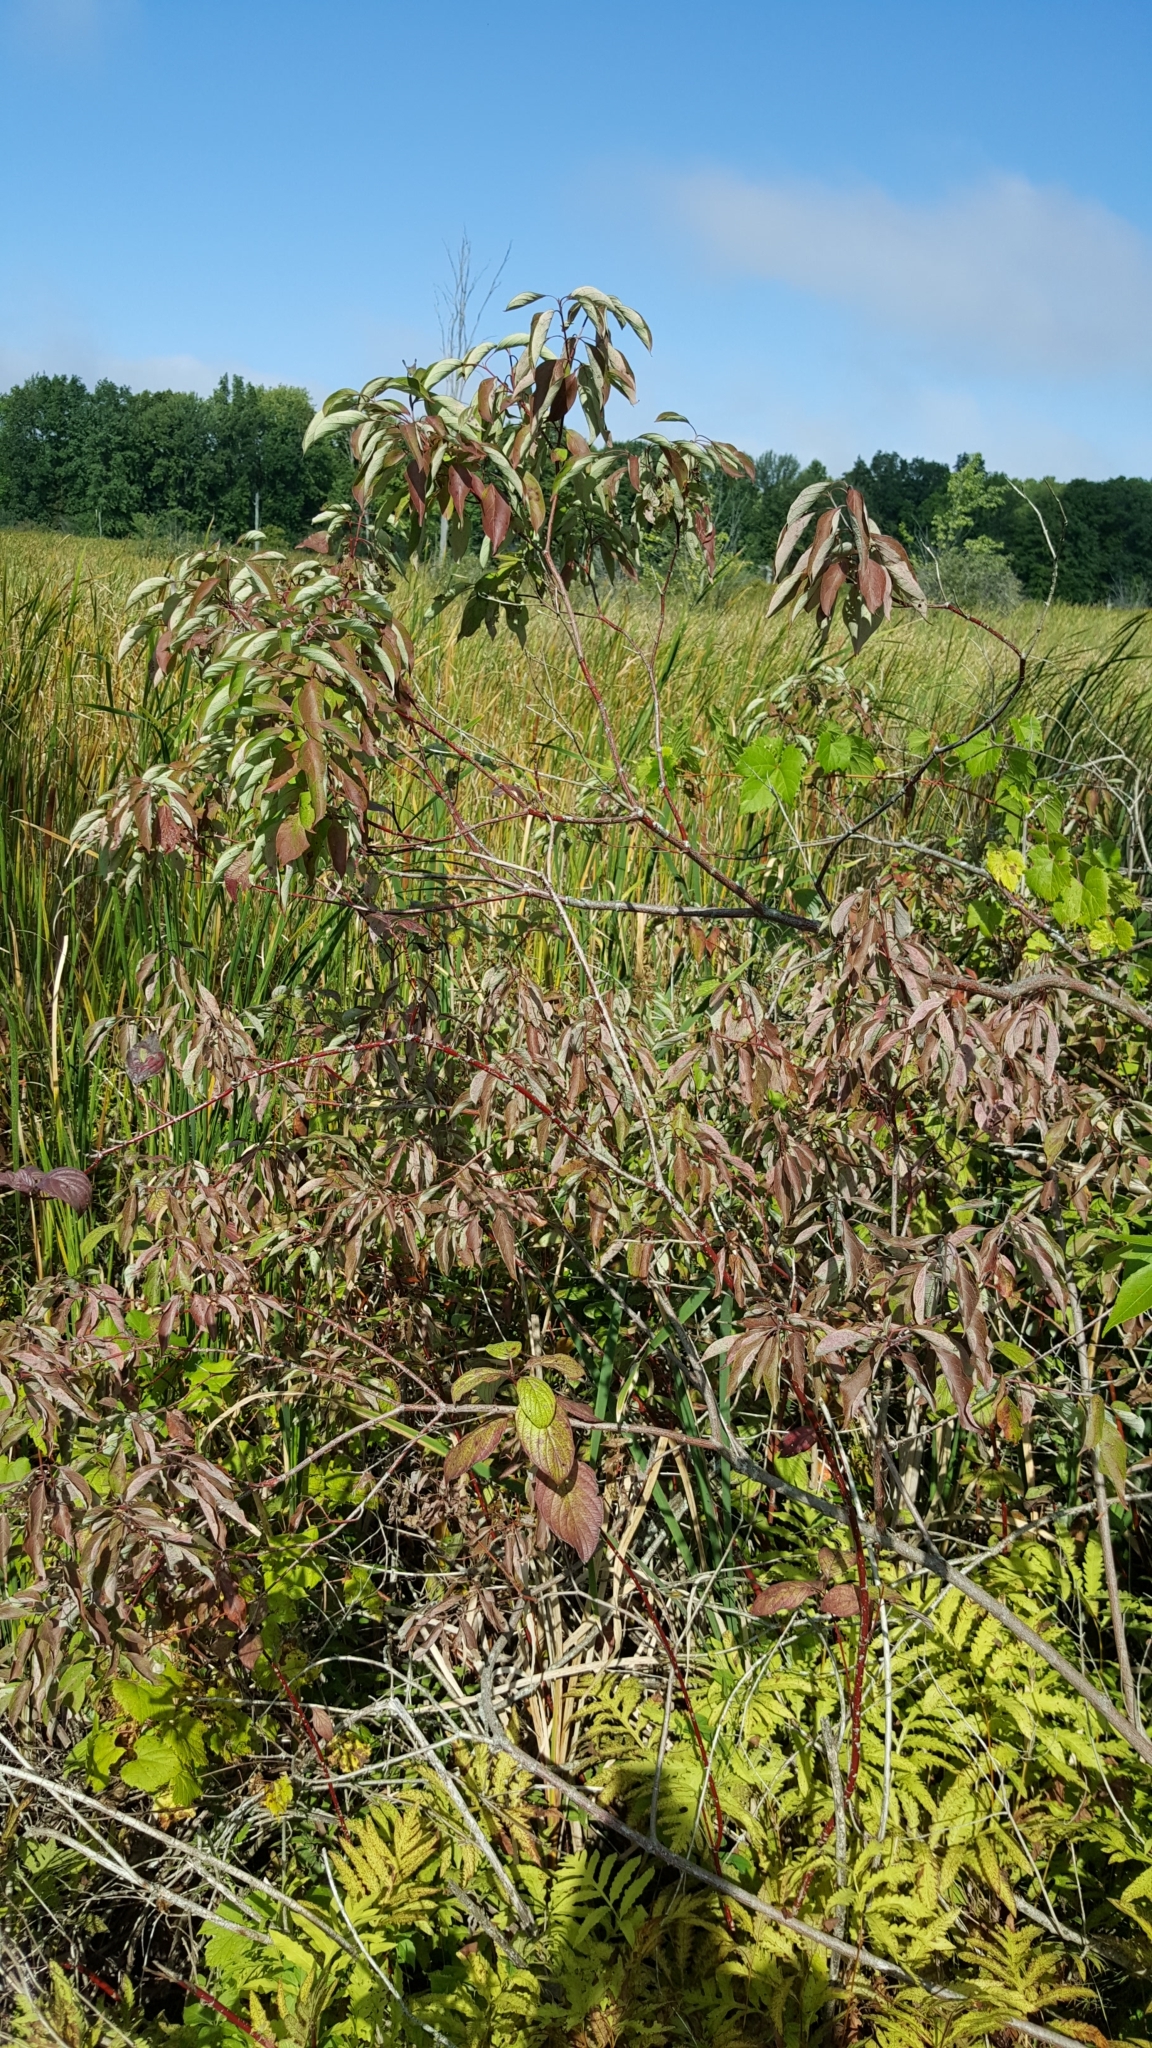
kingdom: Plantae
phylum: Tracheophyta
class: Magnoliopsida
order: Cornales
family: Cornaceae
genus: Cornus
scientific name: Cornus amomum
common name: Silky dogwood
